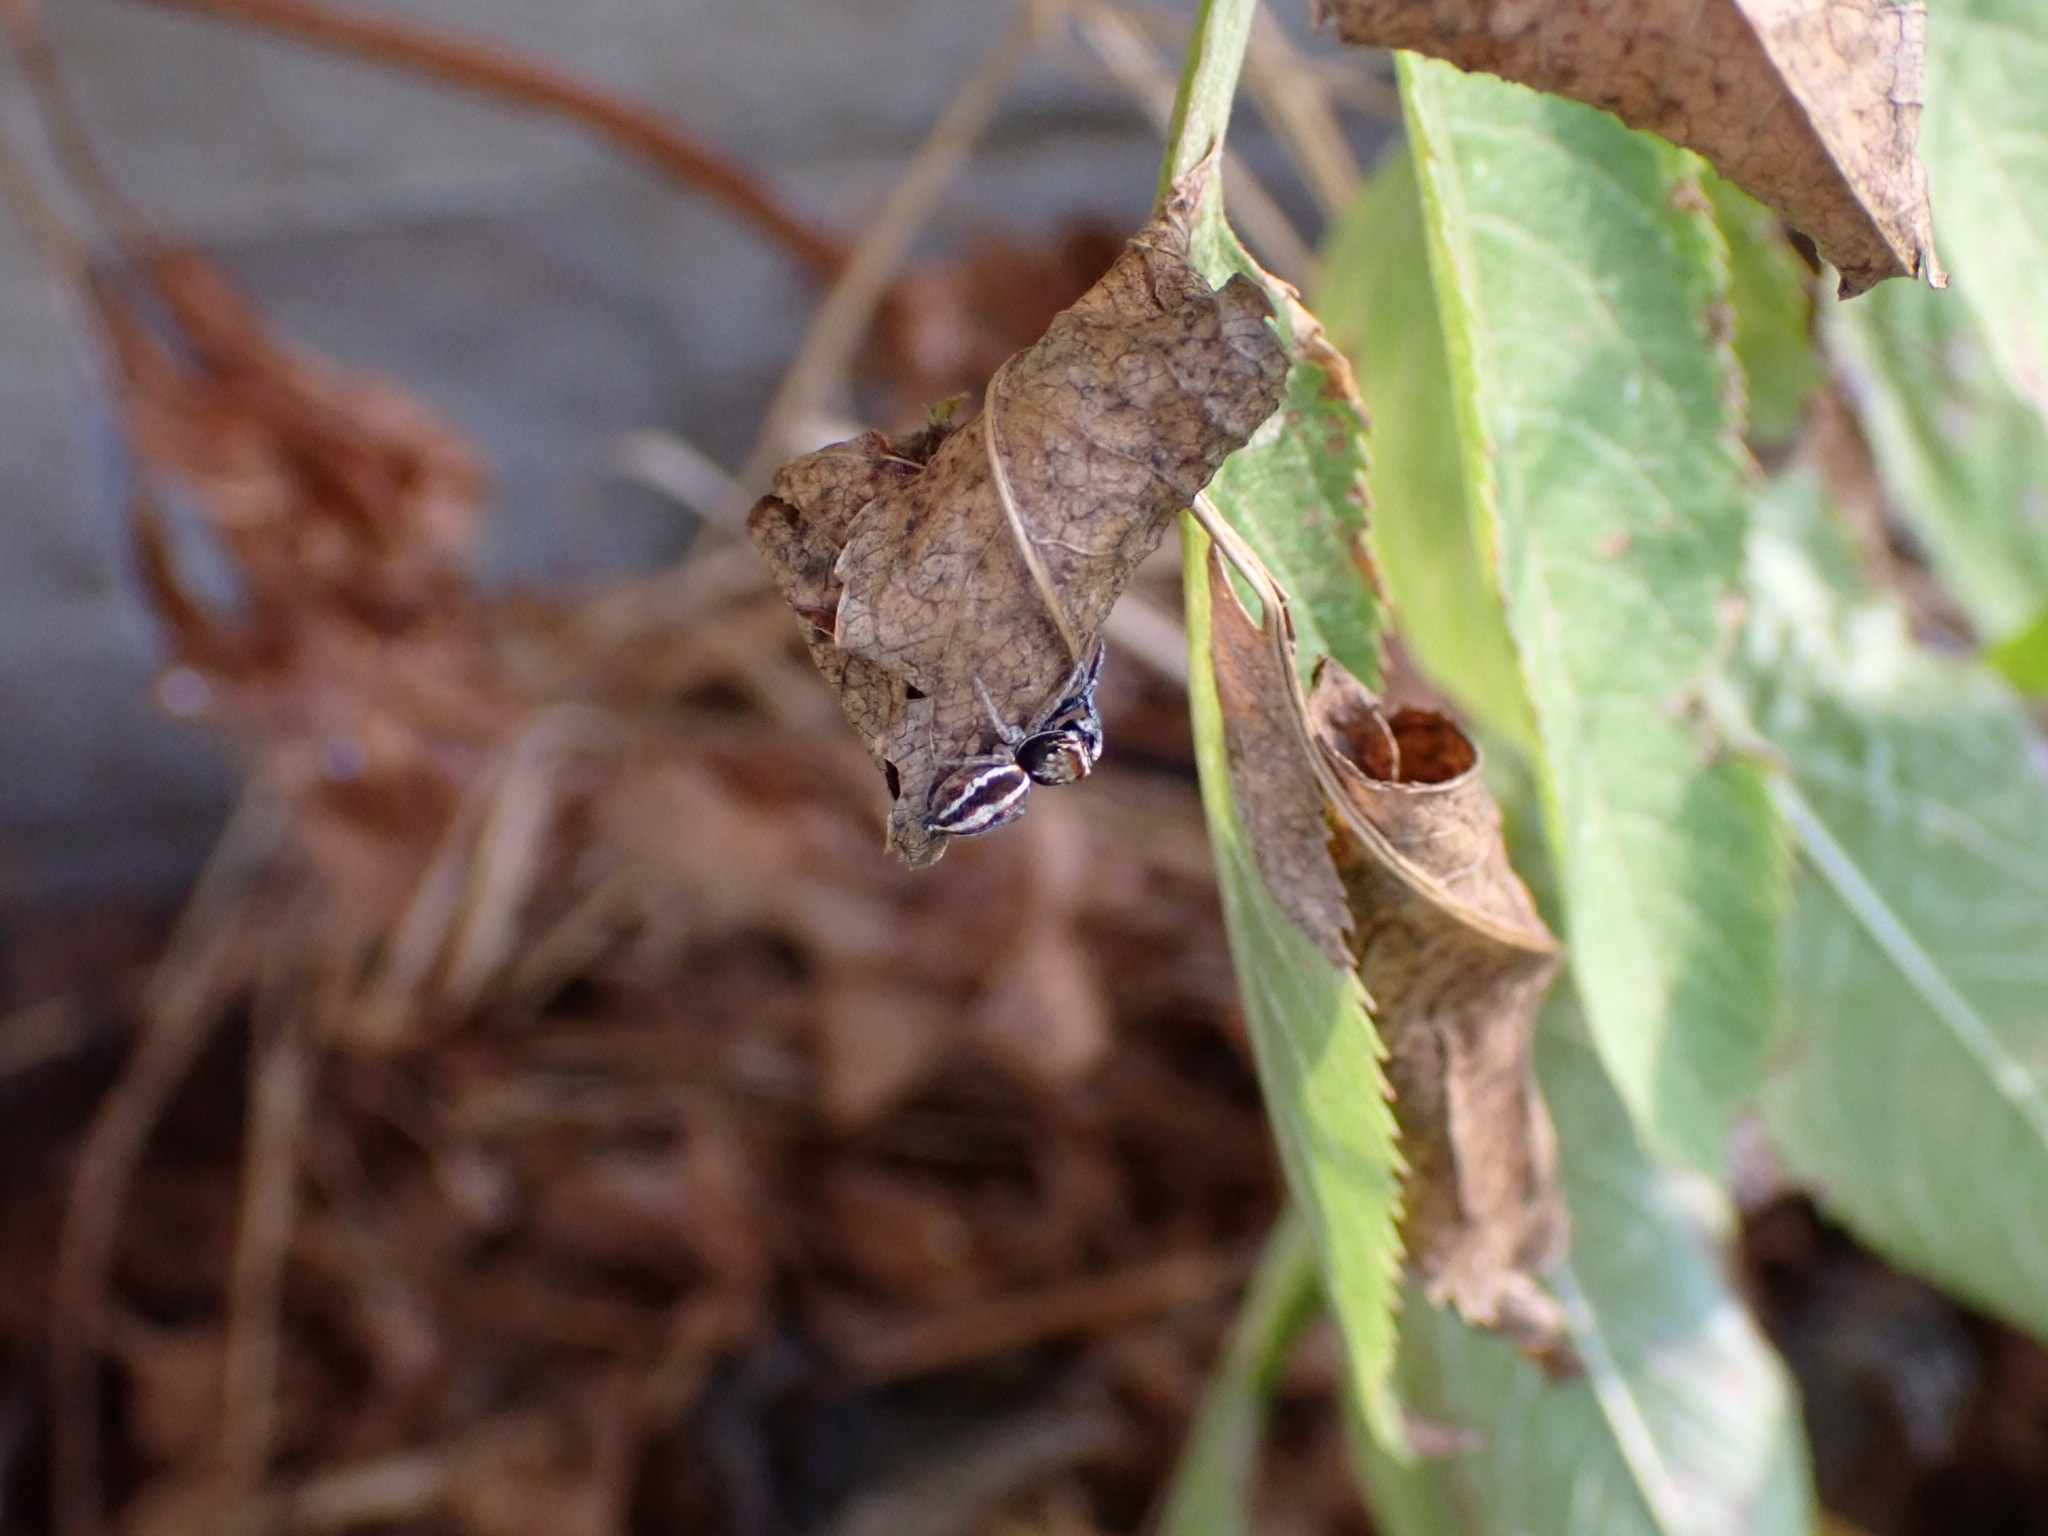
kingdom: Animalia
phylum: Arthropoda
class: Arachnida
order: Araneae
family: Salticidae
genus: Icius
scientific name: Icius subinermis
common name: Jumping spider
